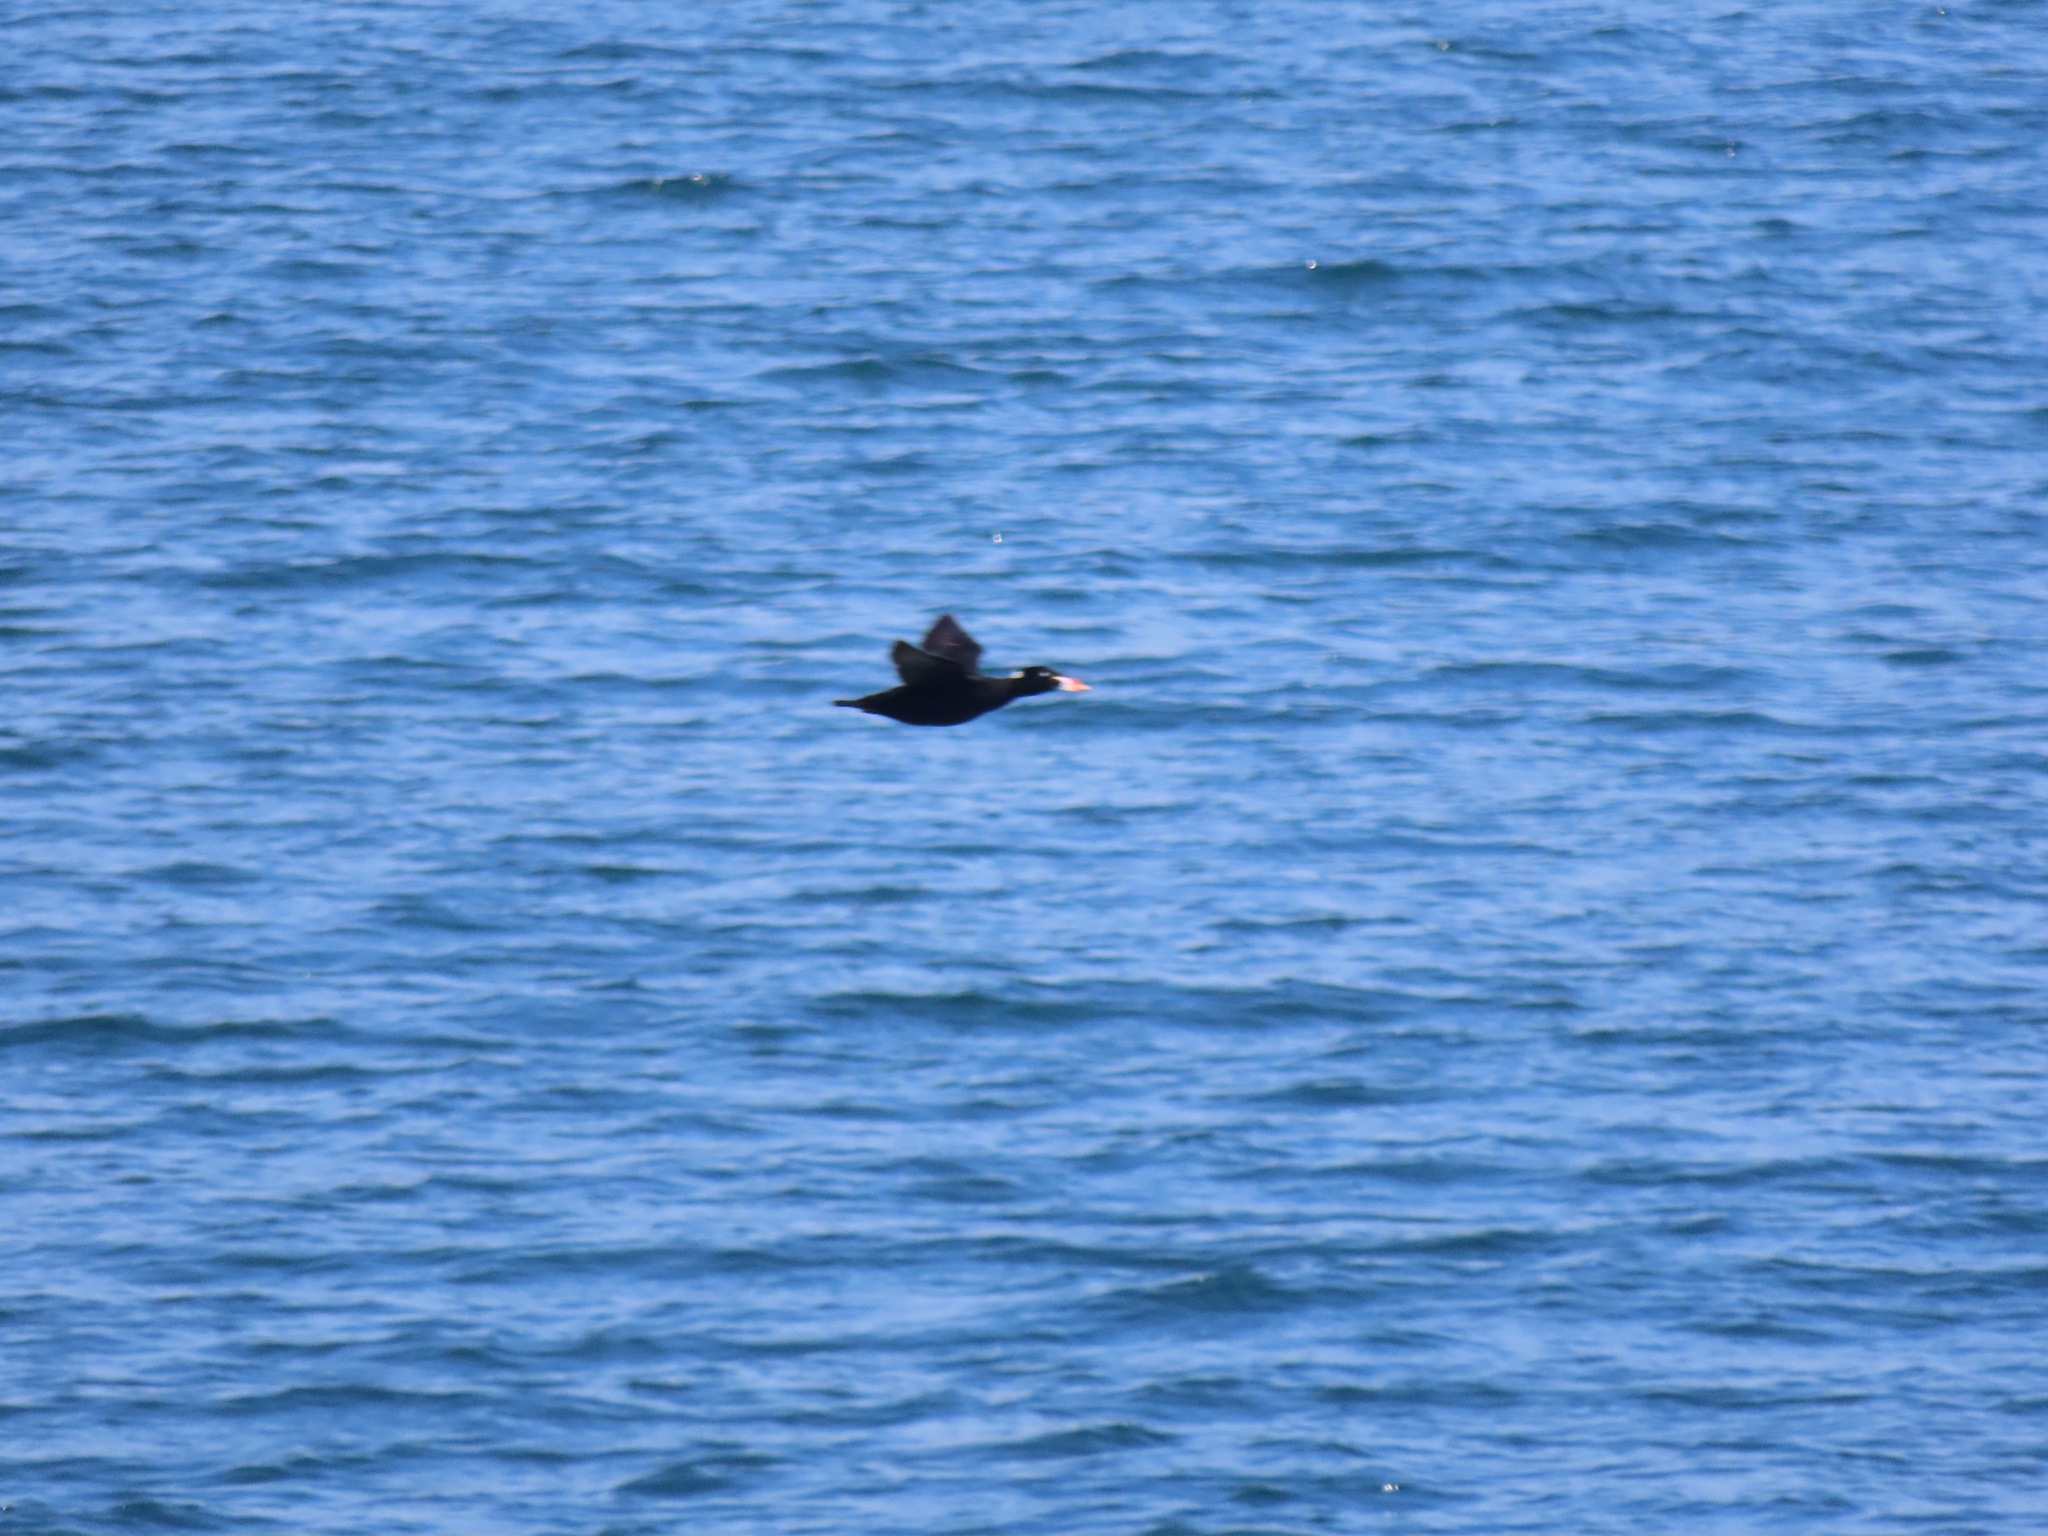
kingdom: Animalia
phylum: Chordata
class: Aves
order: Anseriformes
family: Anatidae
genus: Melanitta
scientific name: Melanitta perspicillata
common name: Surf scoter
